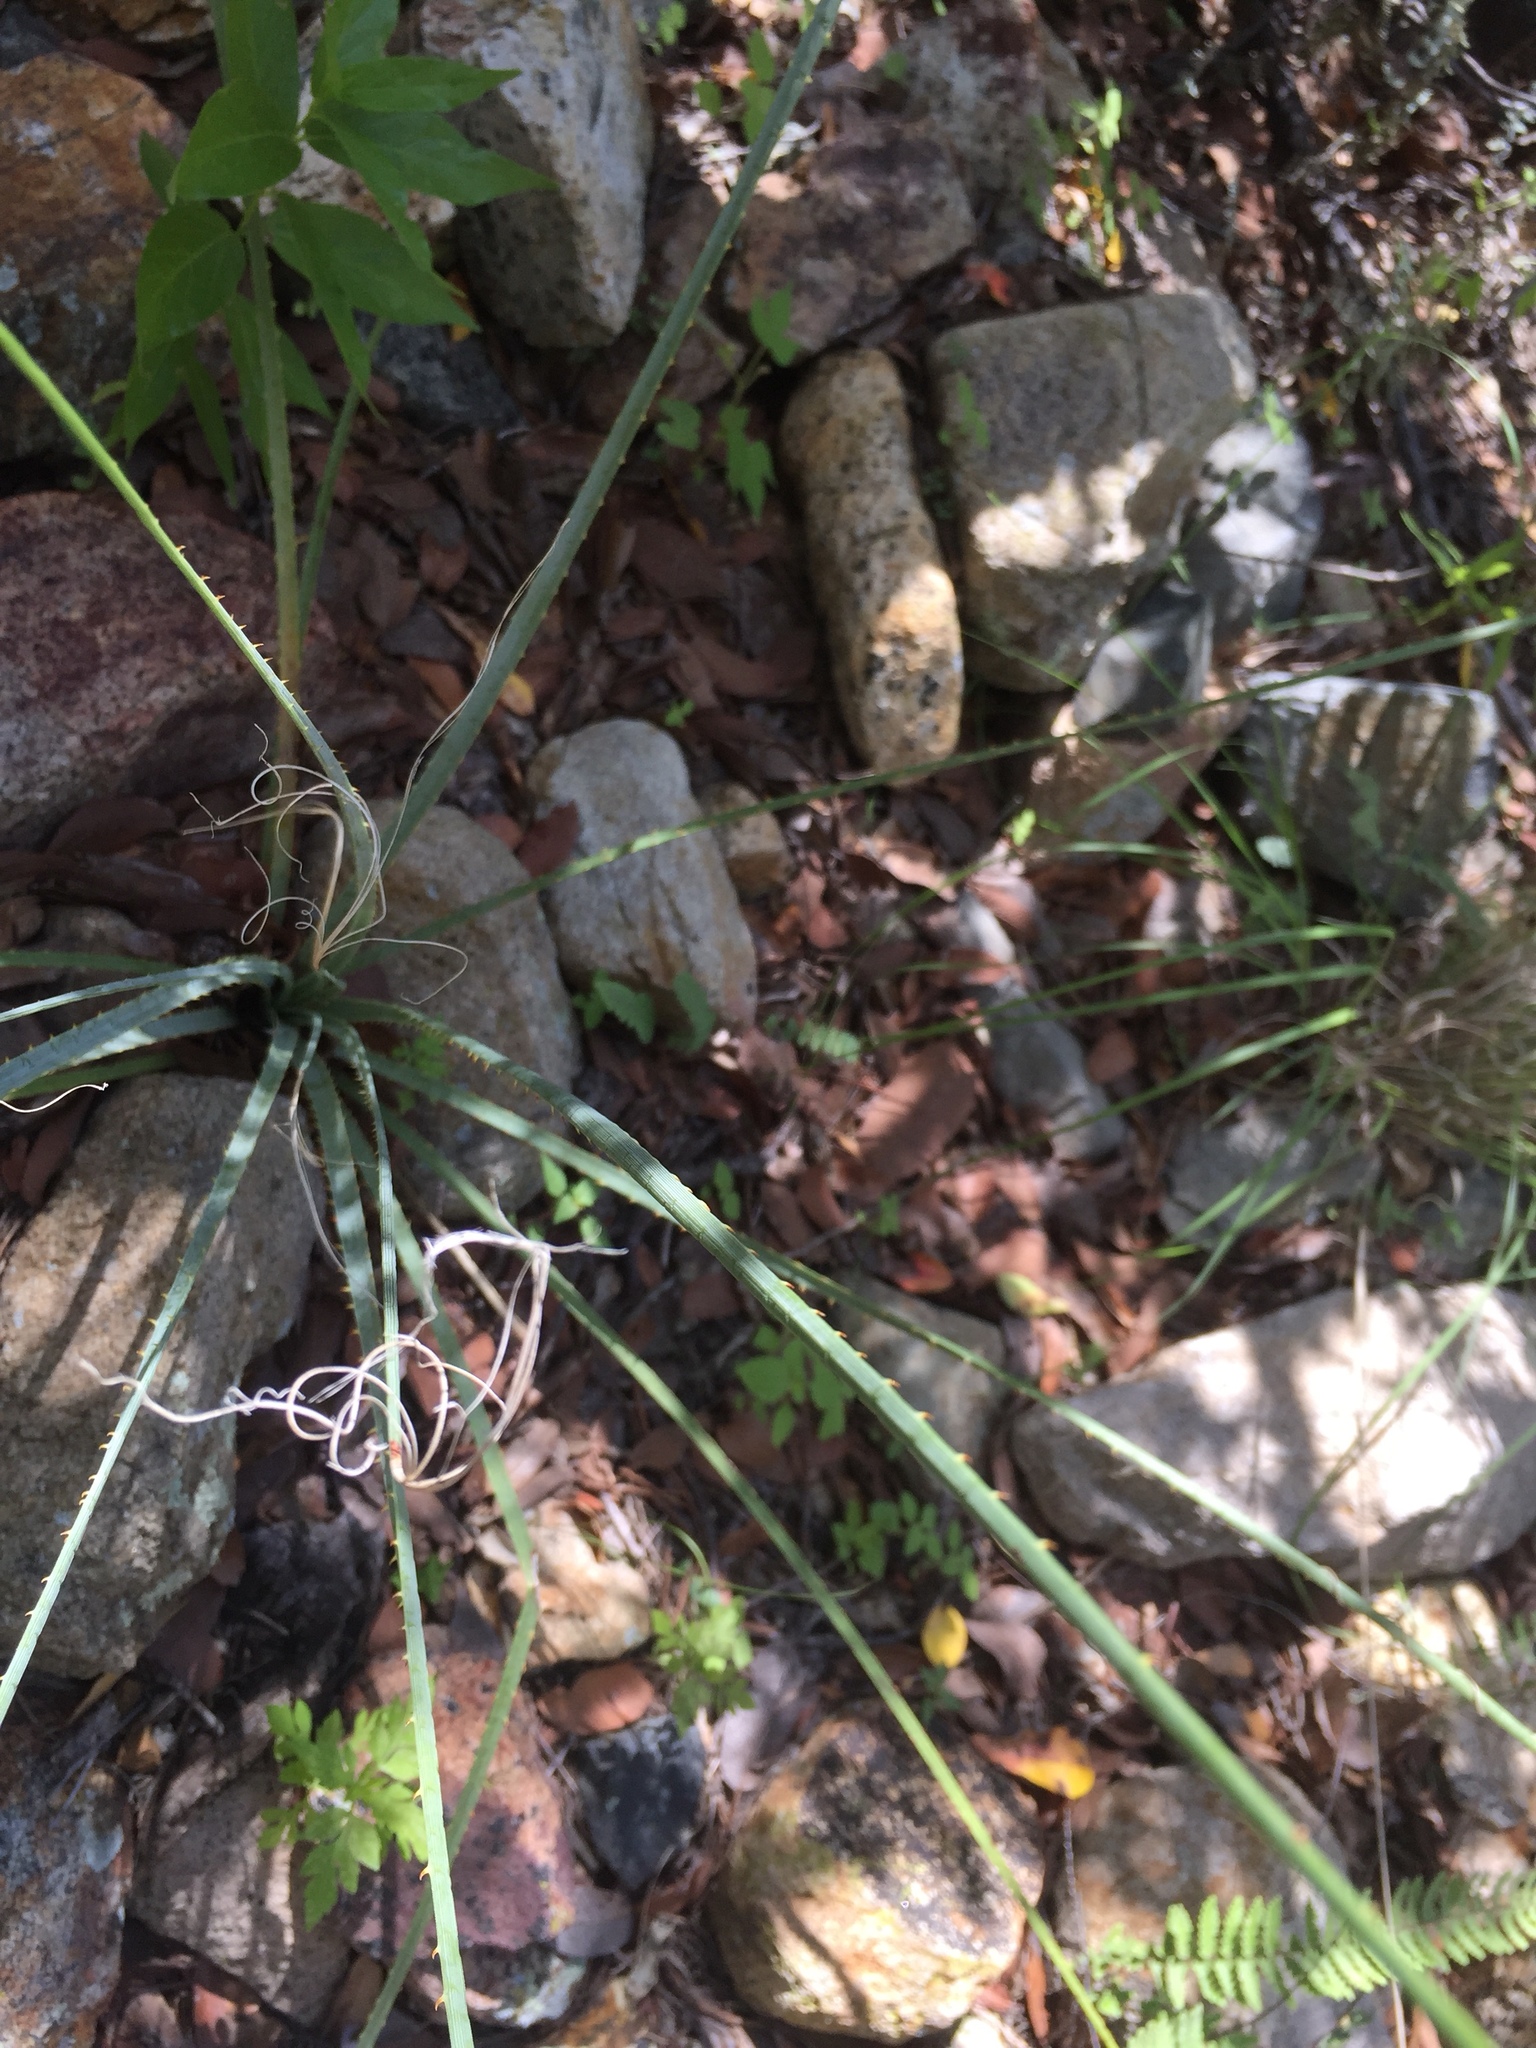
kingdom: Plantae
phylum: Tracheophyta
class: Liliopsida
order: Asparagales
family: Asparagaceae
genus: Nolina
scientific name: Nolina microcarpa
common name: Bear-grass
